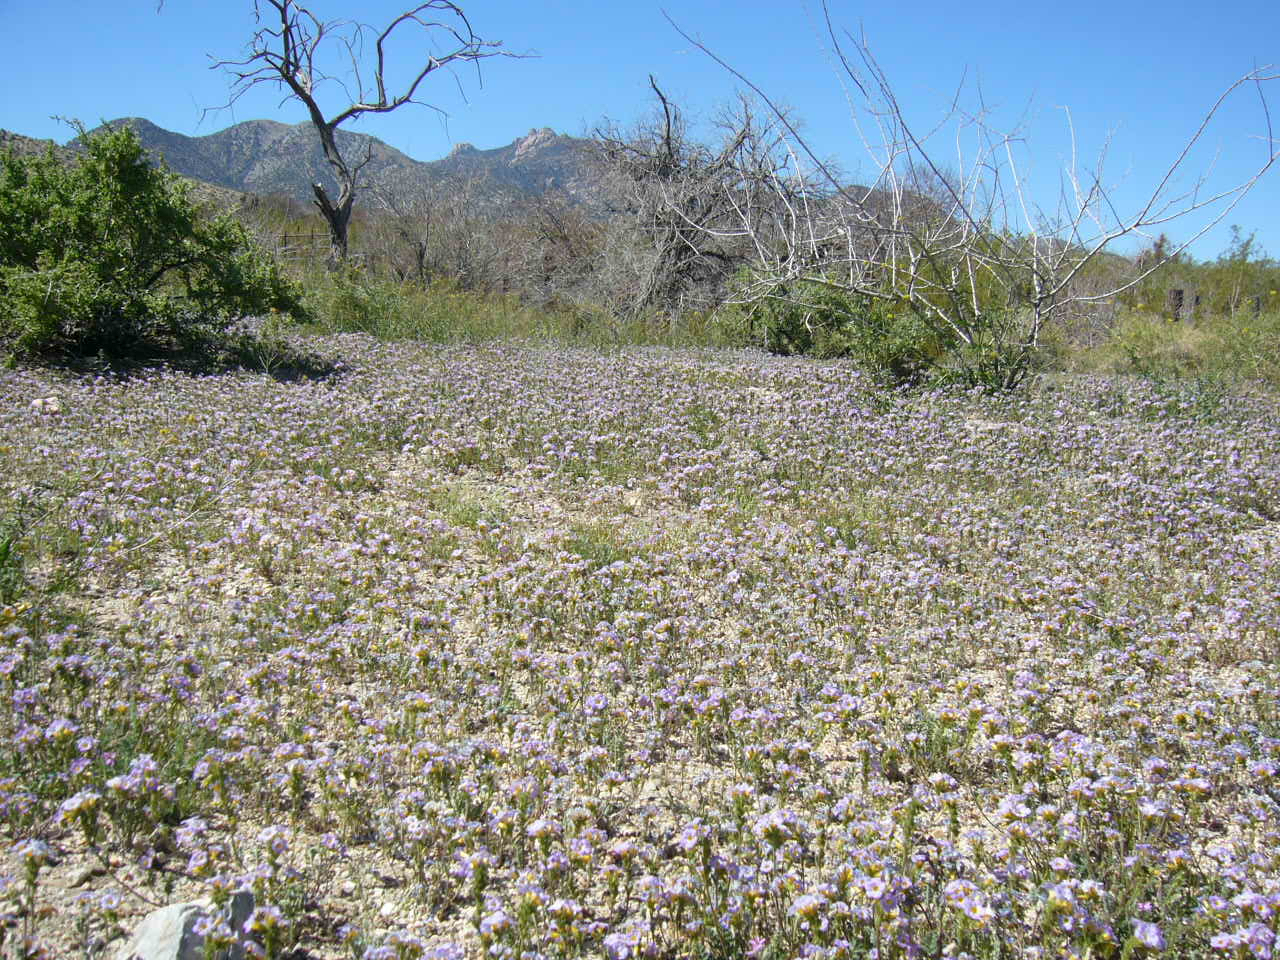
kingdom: Plantae
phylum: Tracheophyta
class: Magnoliopsida
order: Boraginales
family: Hydrophyllaceae
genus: Phacelia
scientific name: Phacelia fremontii
